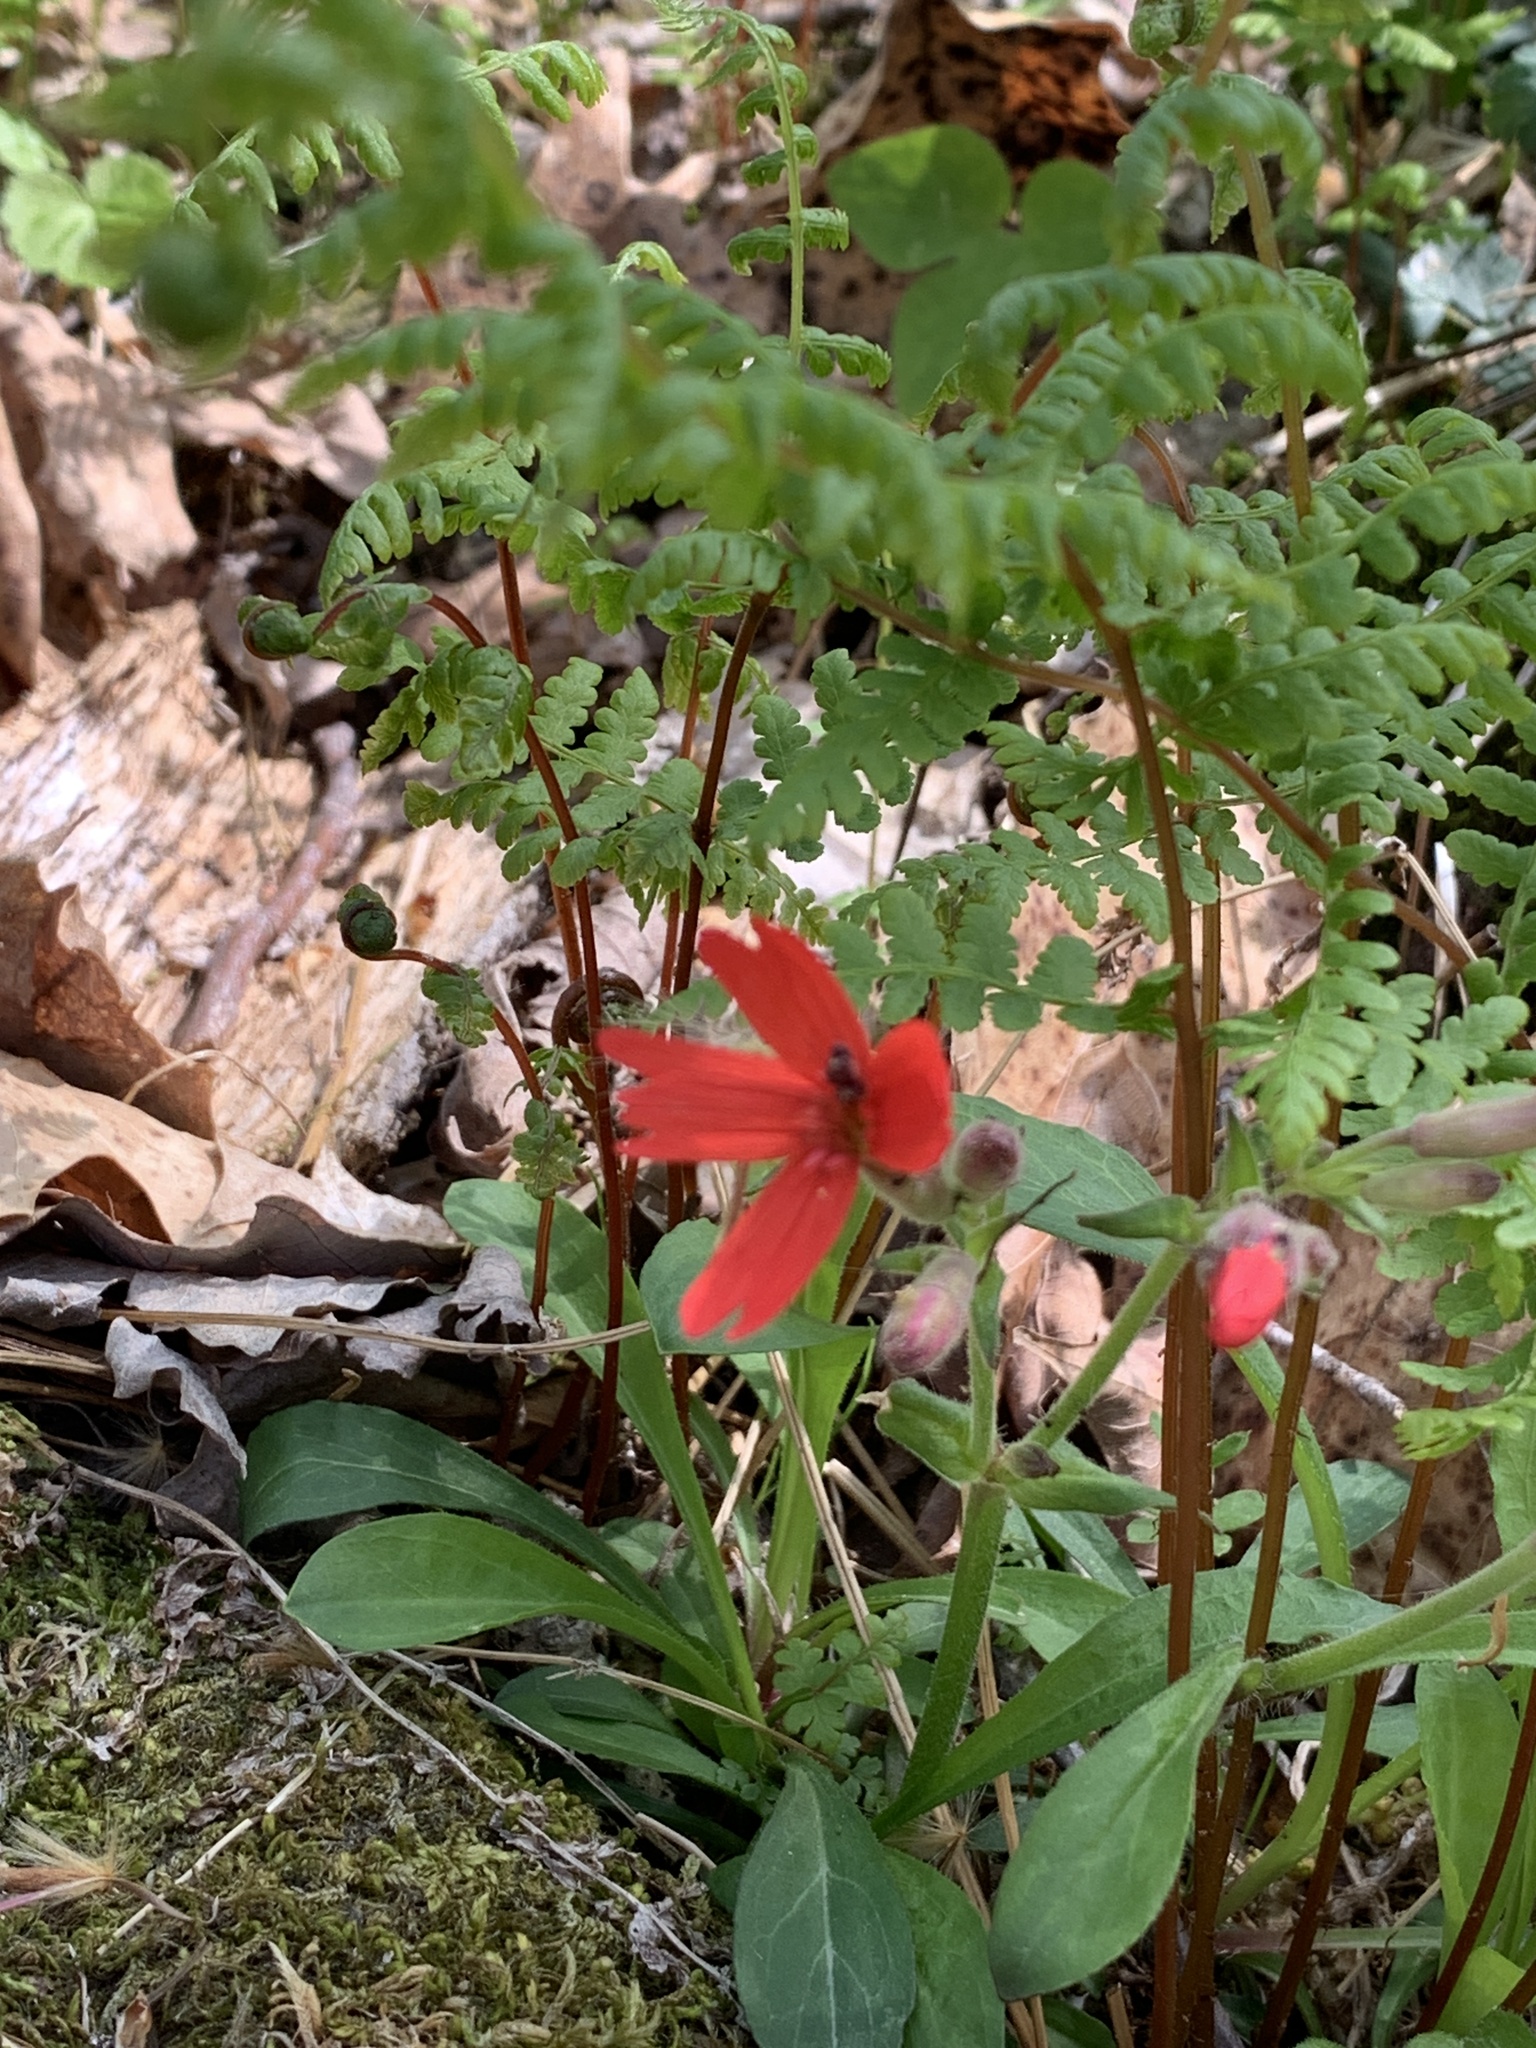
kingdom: Plantae
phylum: Tracheophyta
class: Magnoliopsida
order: Caryophyllales
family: Caryophyllaceae
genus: Silene
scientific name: Silene virginica
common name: Fire-pink
